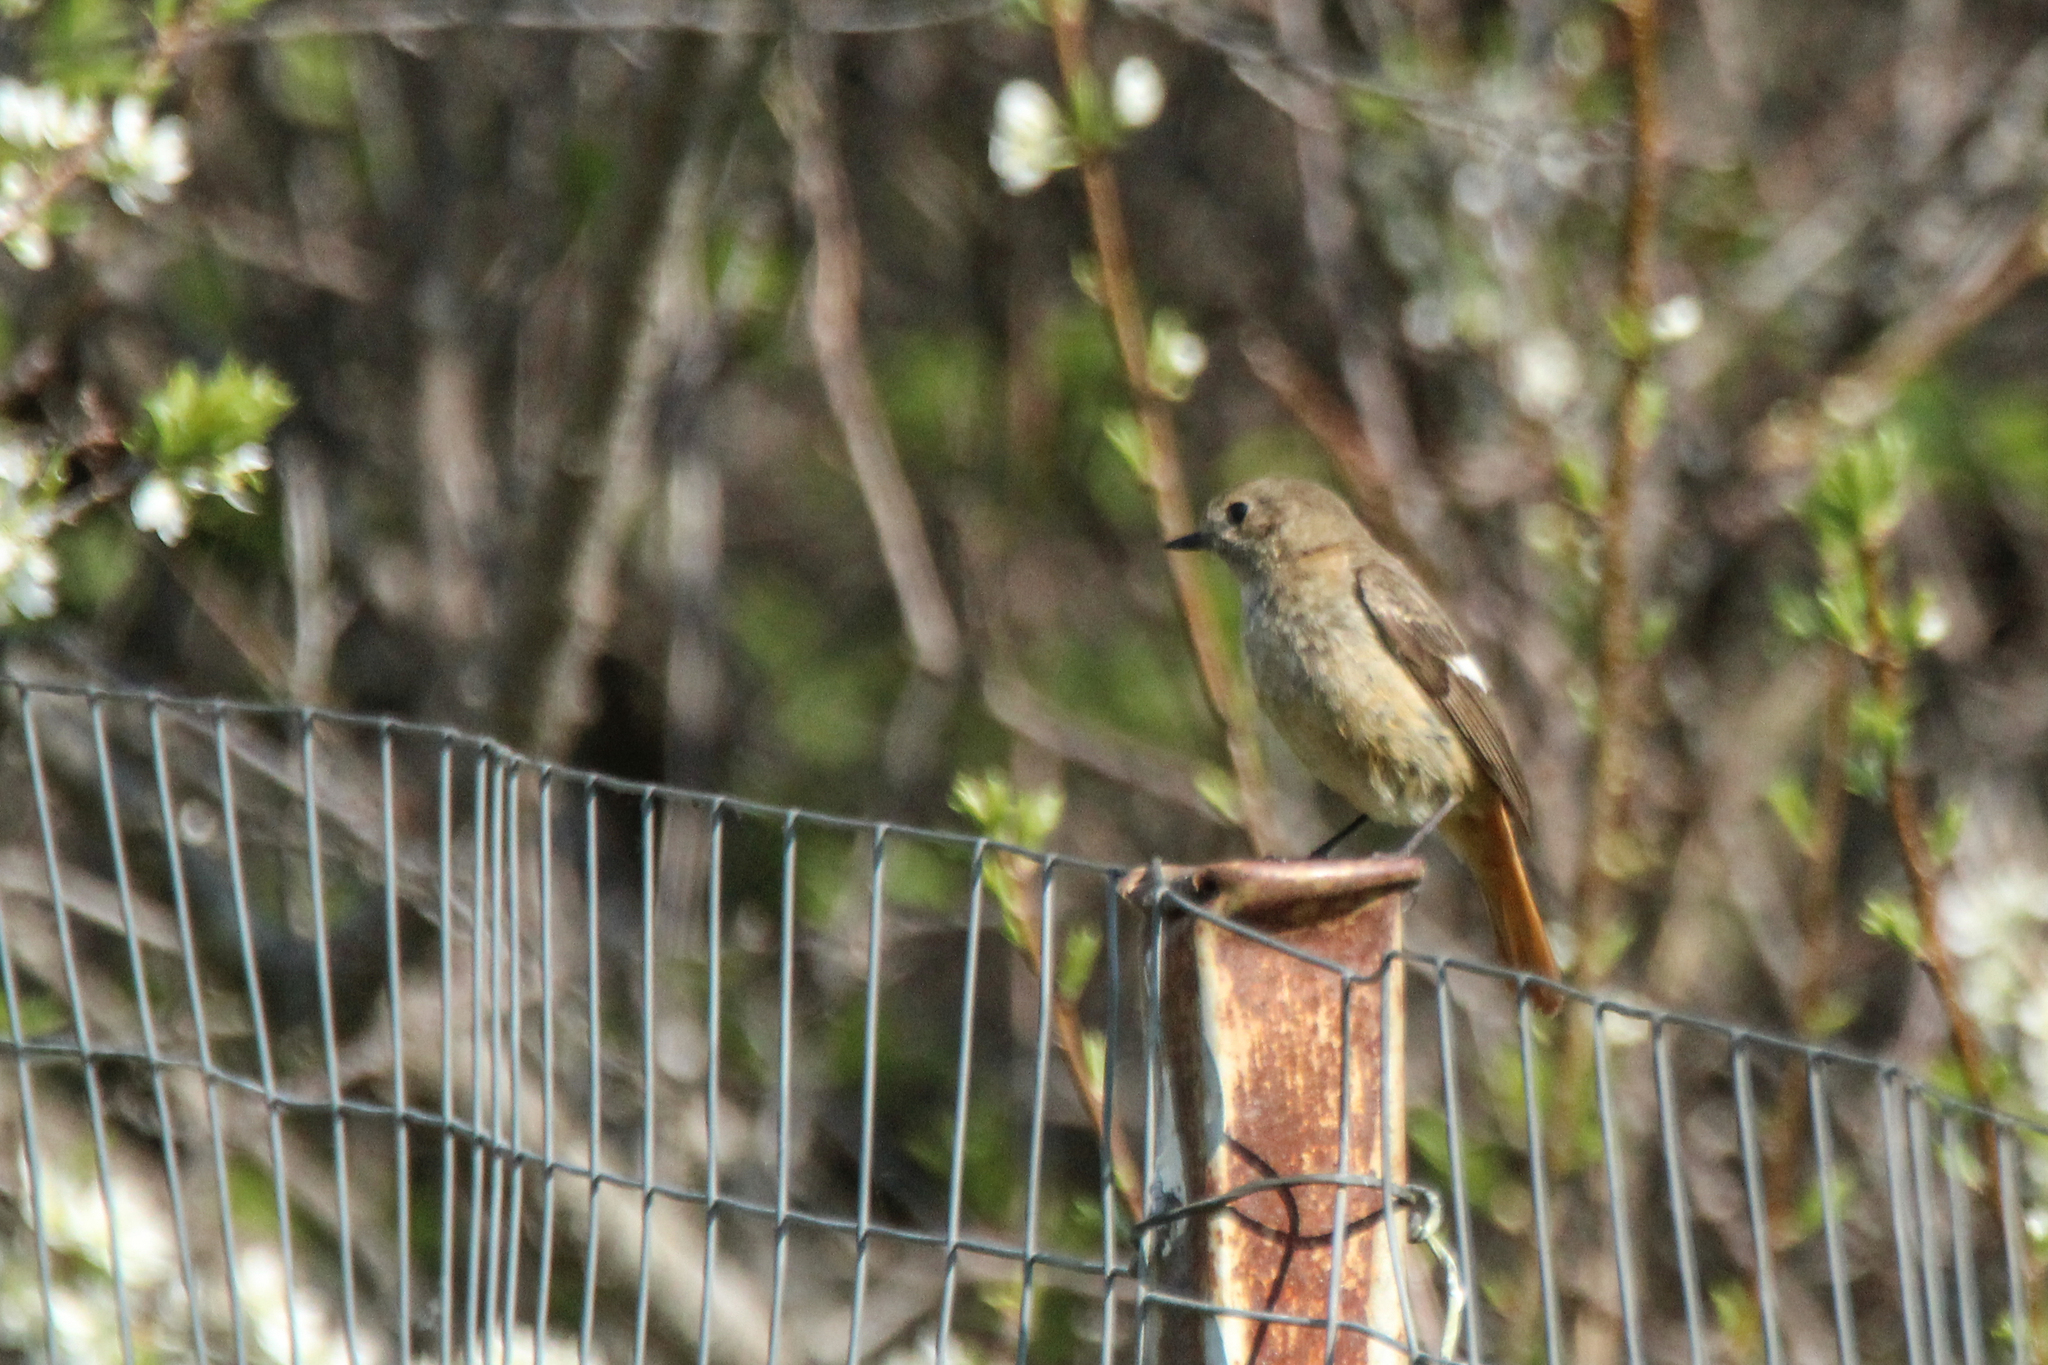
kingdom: Animalia
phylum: Chordata
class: Aves
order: Passeriformes
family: Muscicapidae
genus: Phoenicurus
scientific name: Phoenicurus auroreus
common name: Daurian redstart
